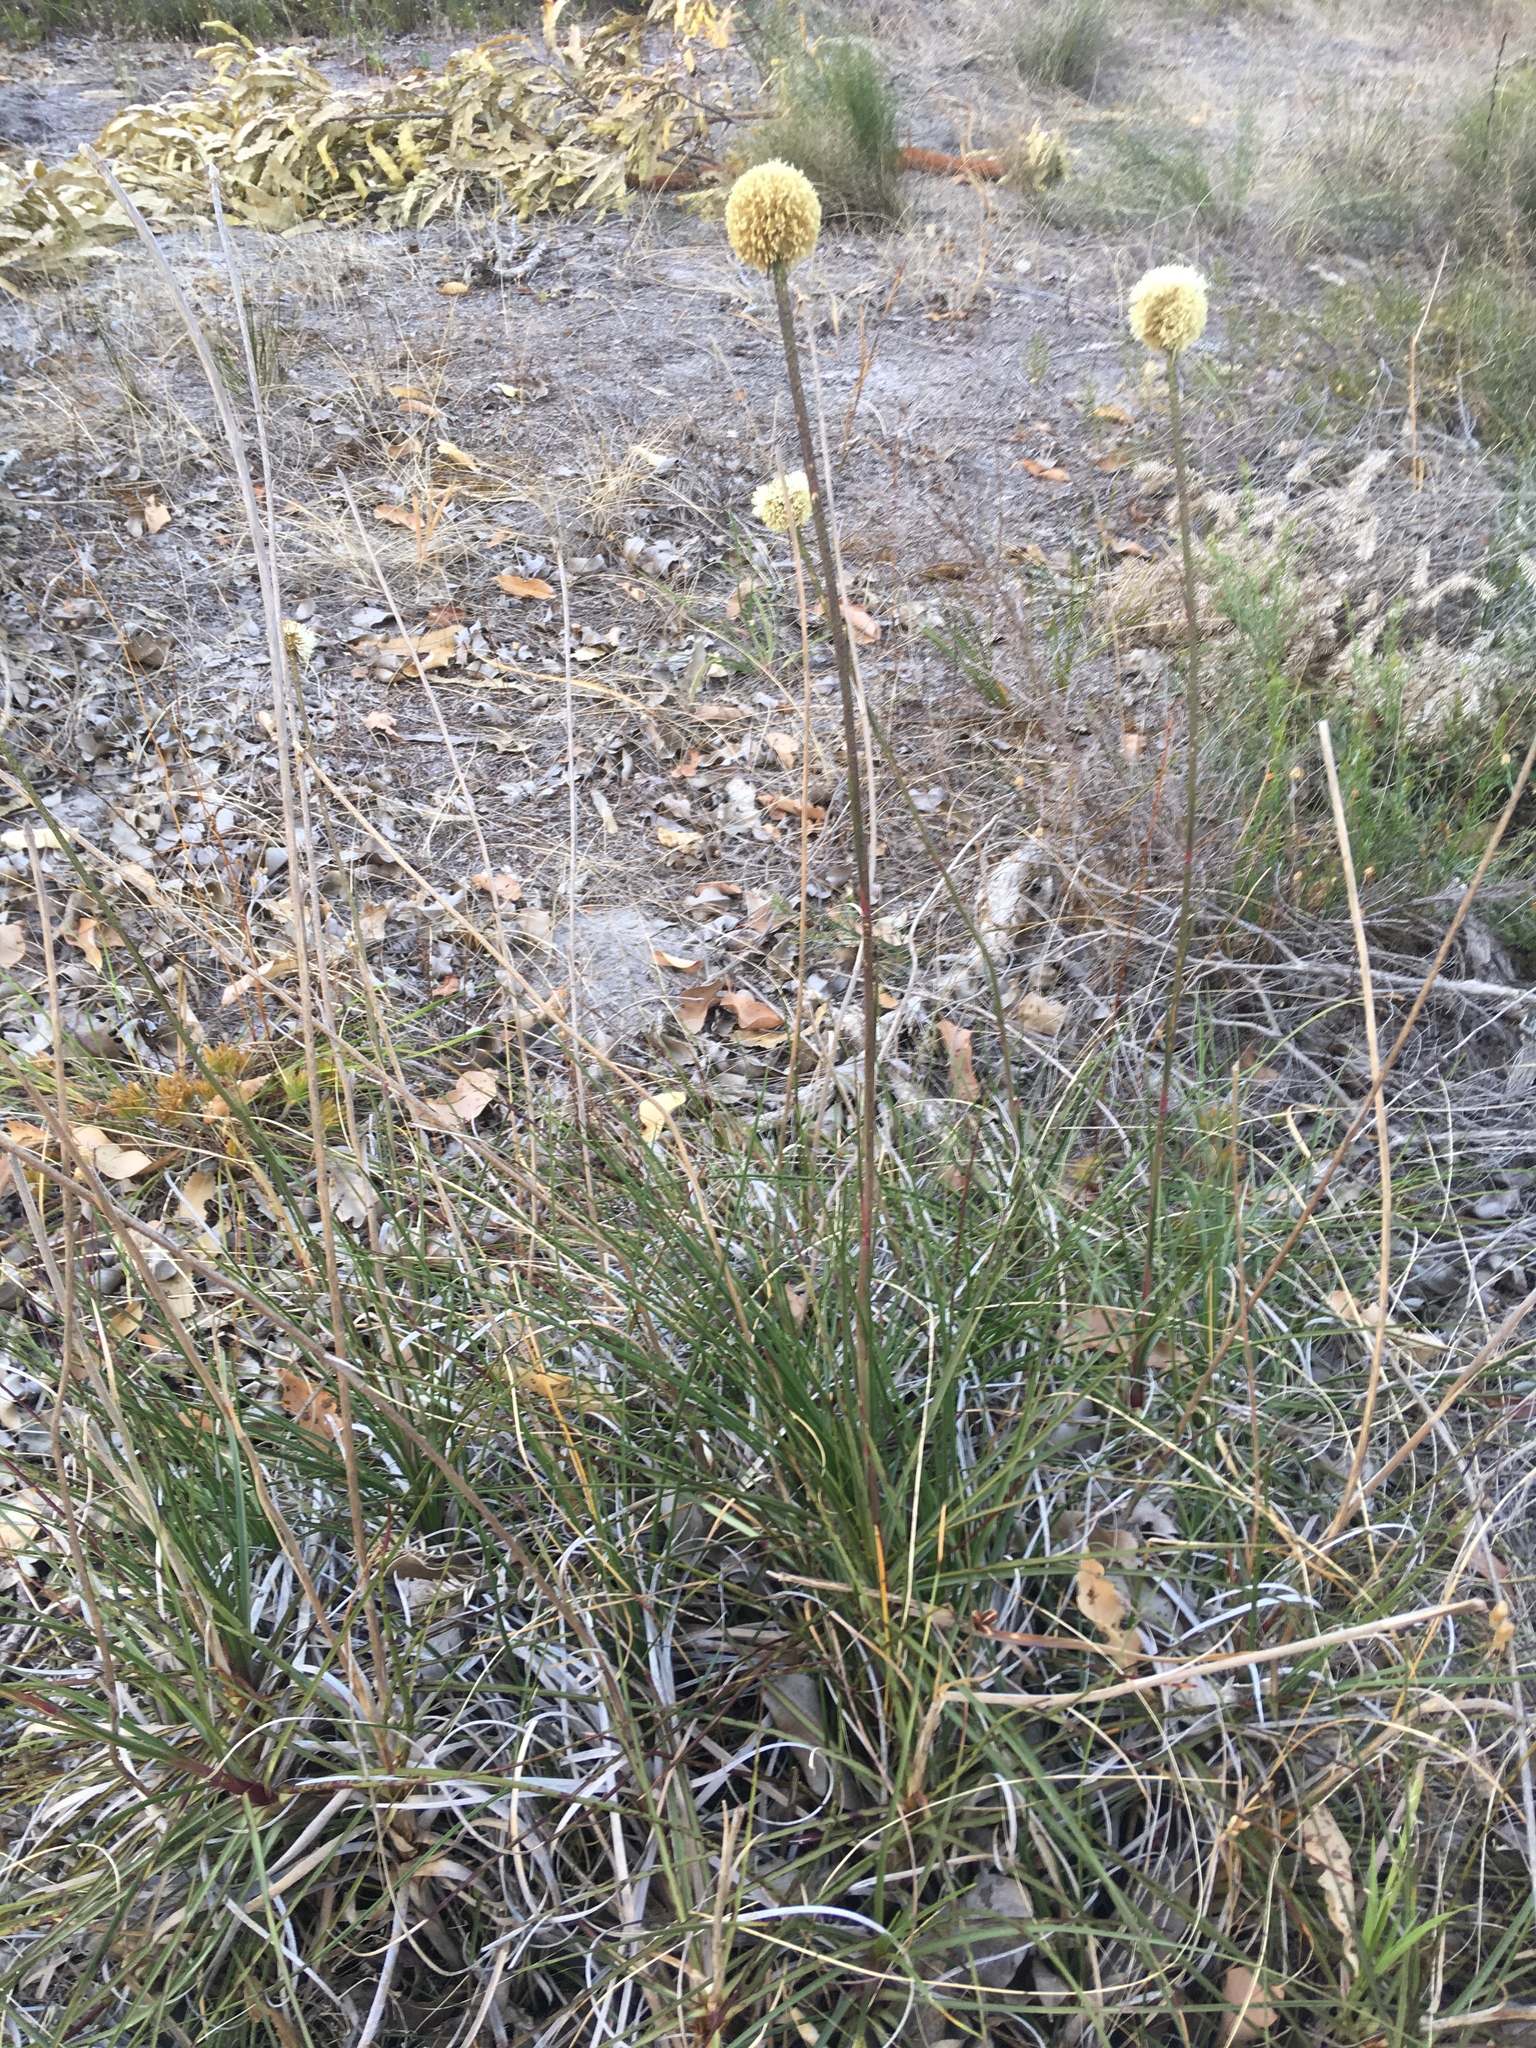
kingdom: Plantae
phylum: Tracheophyta
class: Liliopsida
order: Arecales
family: Dasypogonaceae
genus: Dasypogon
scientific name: Dasypogon bromeliifolius
